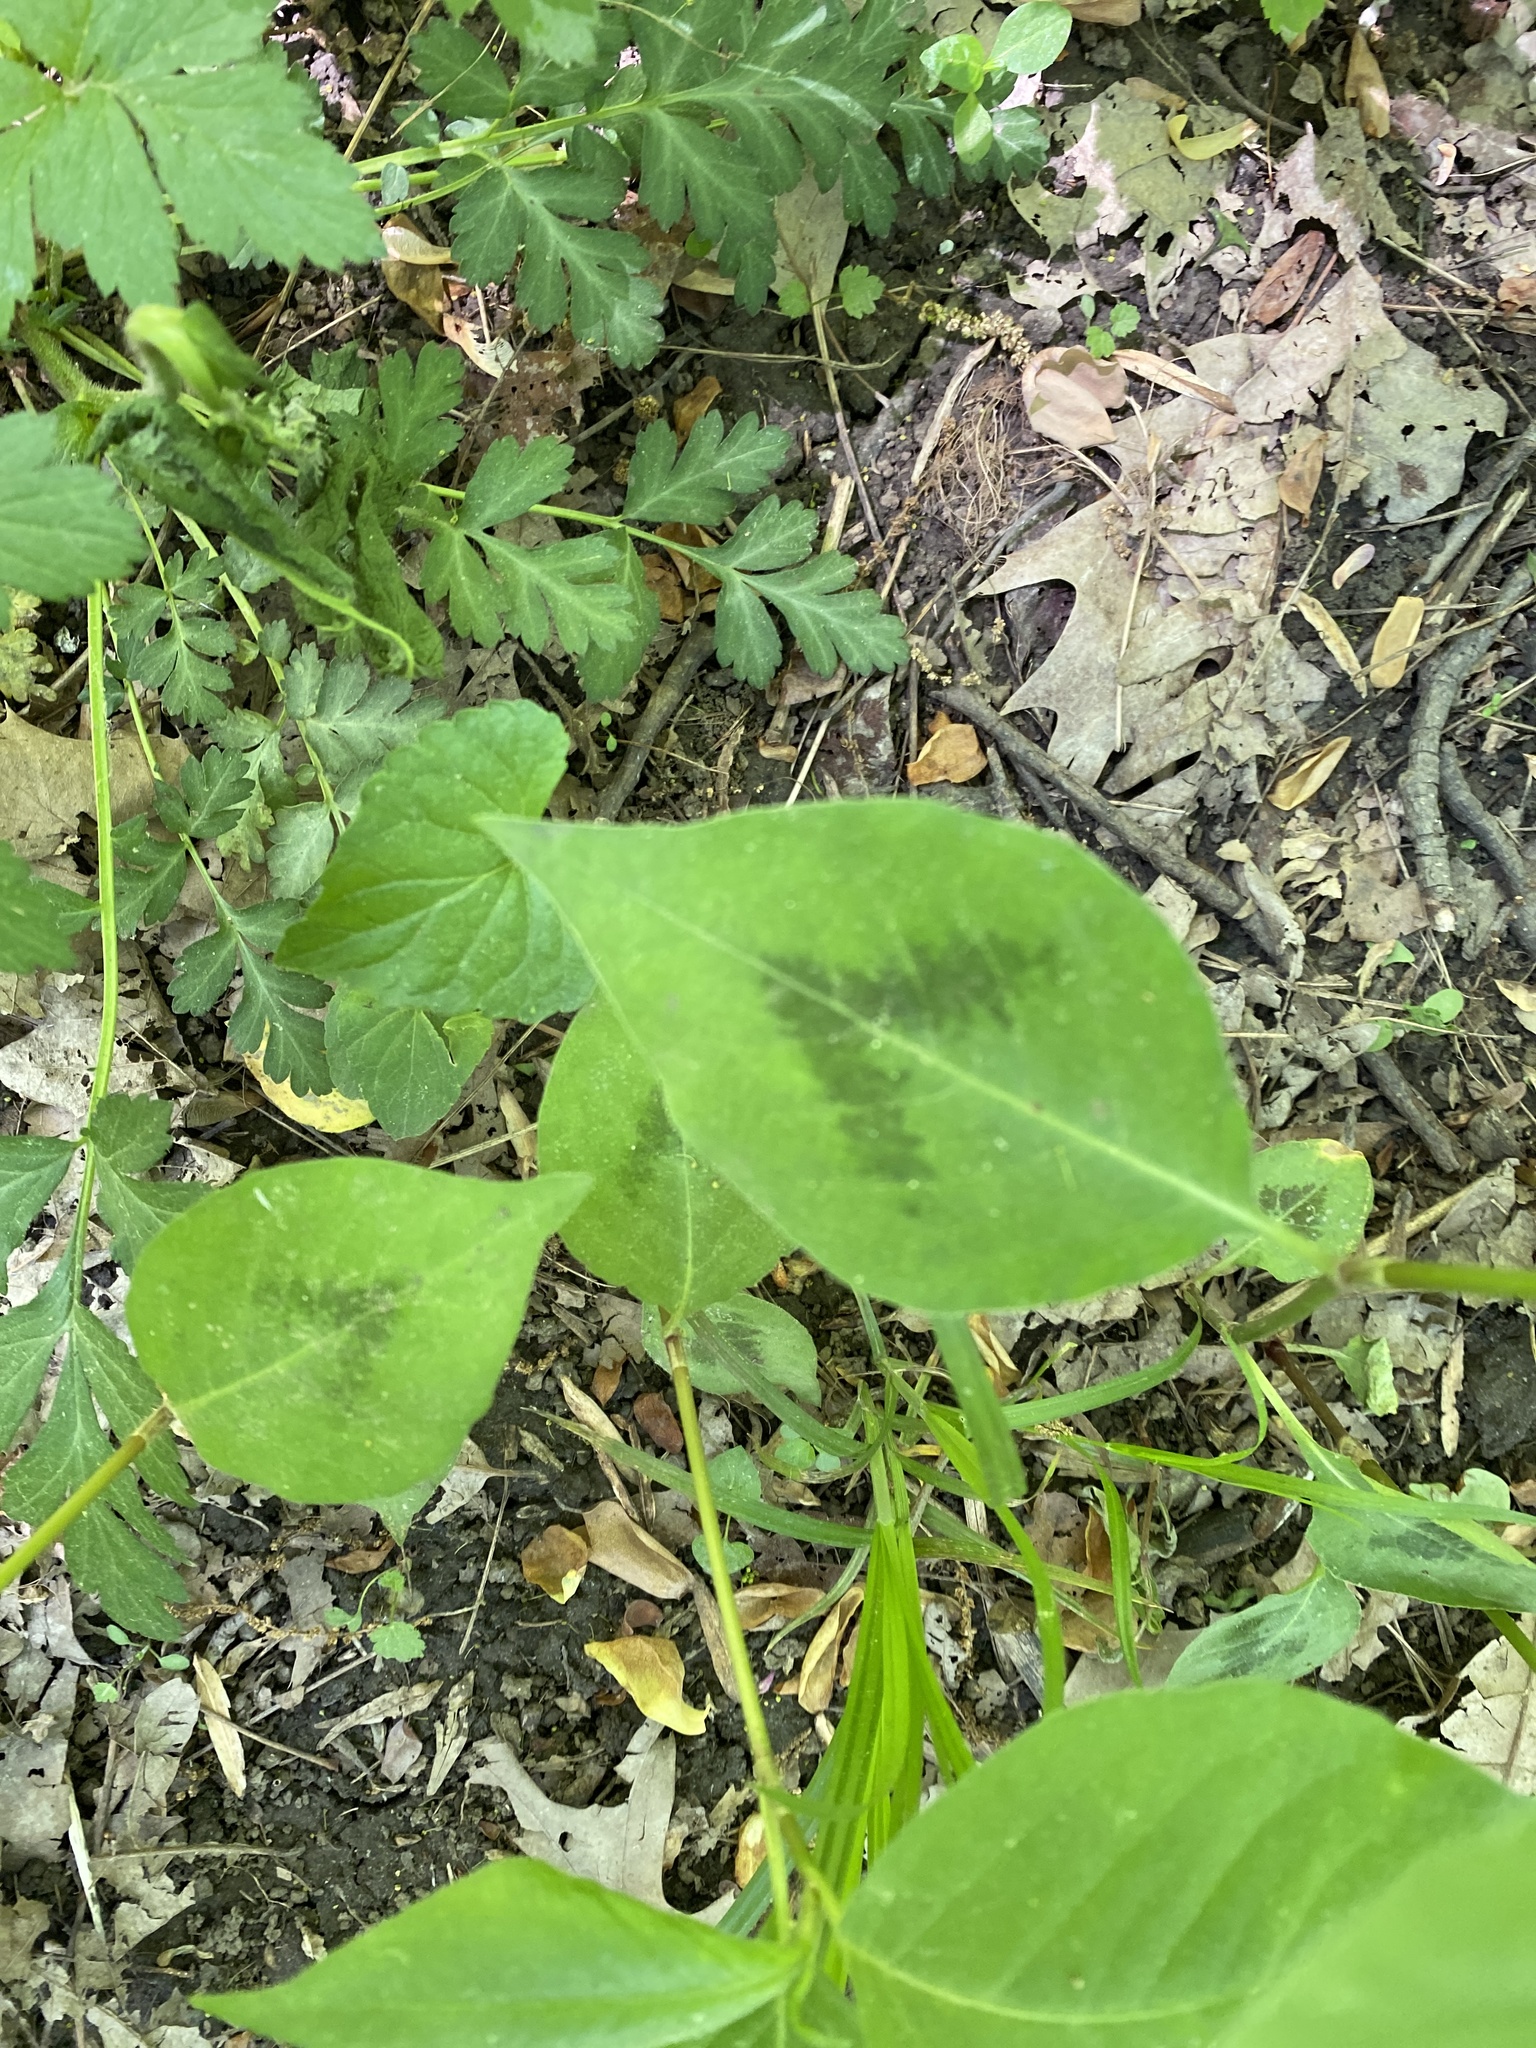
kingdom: Plantae
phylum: Tracheophyta
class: Magnoliopsida
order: Caryophyllales
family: Polygonaceae
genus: Persicaria
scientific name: Persicaria virginiana
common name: Jumpseed
